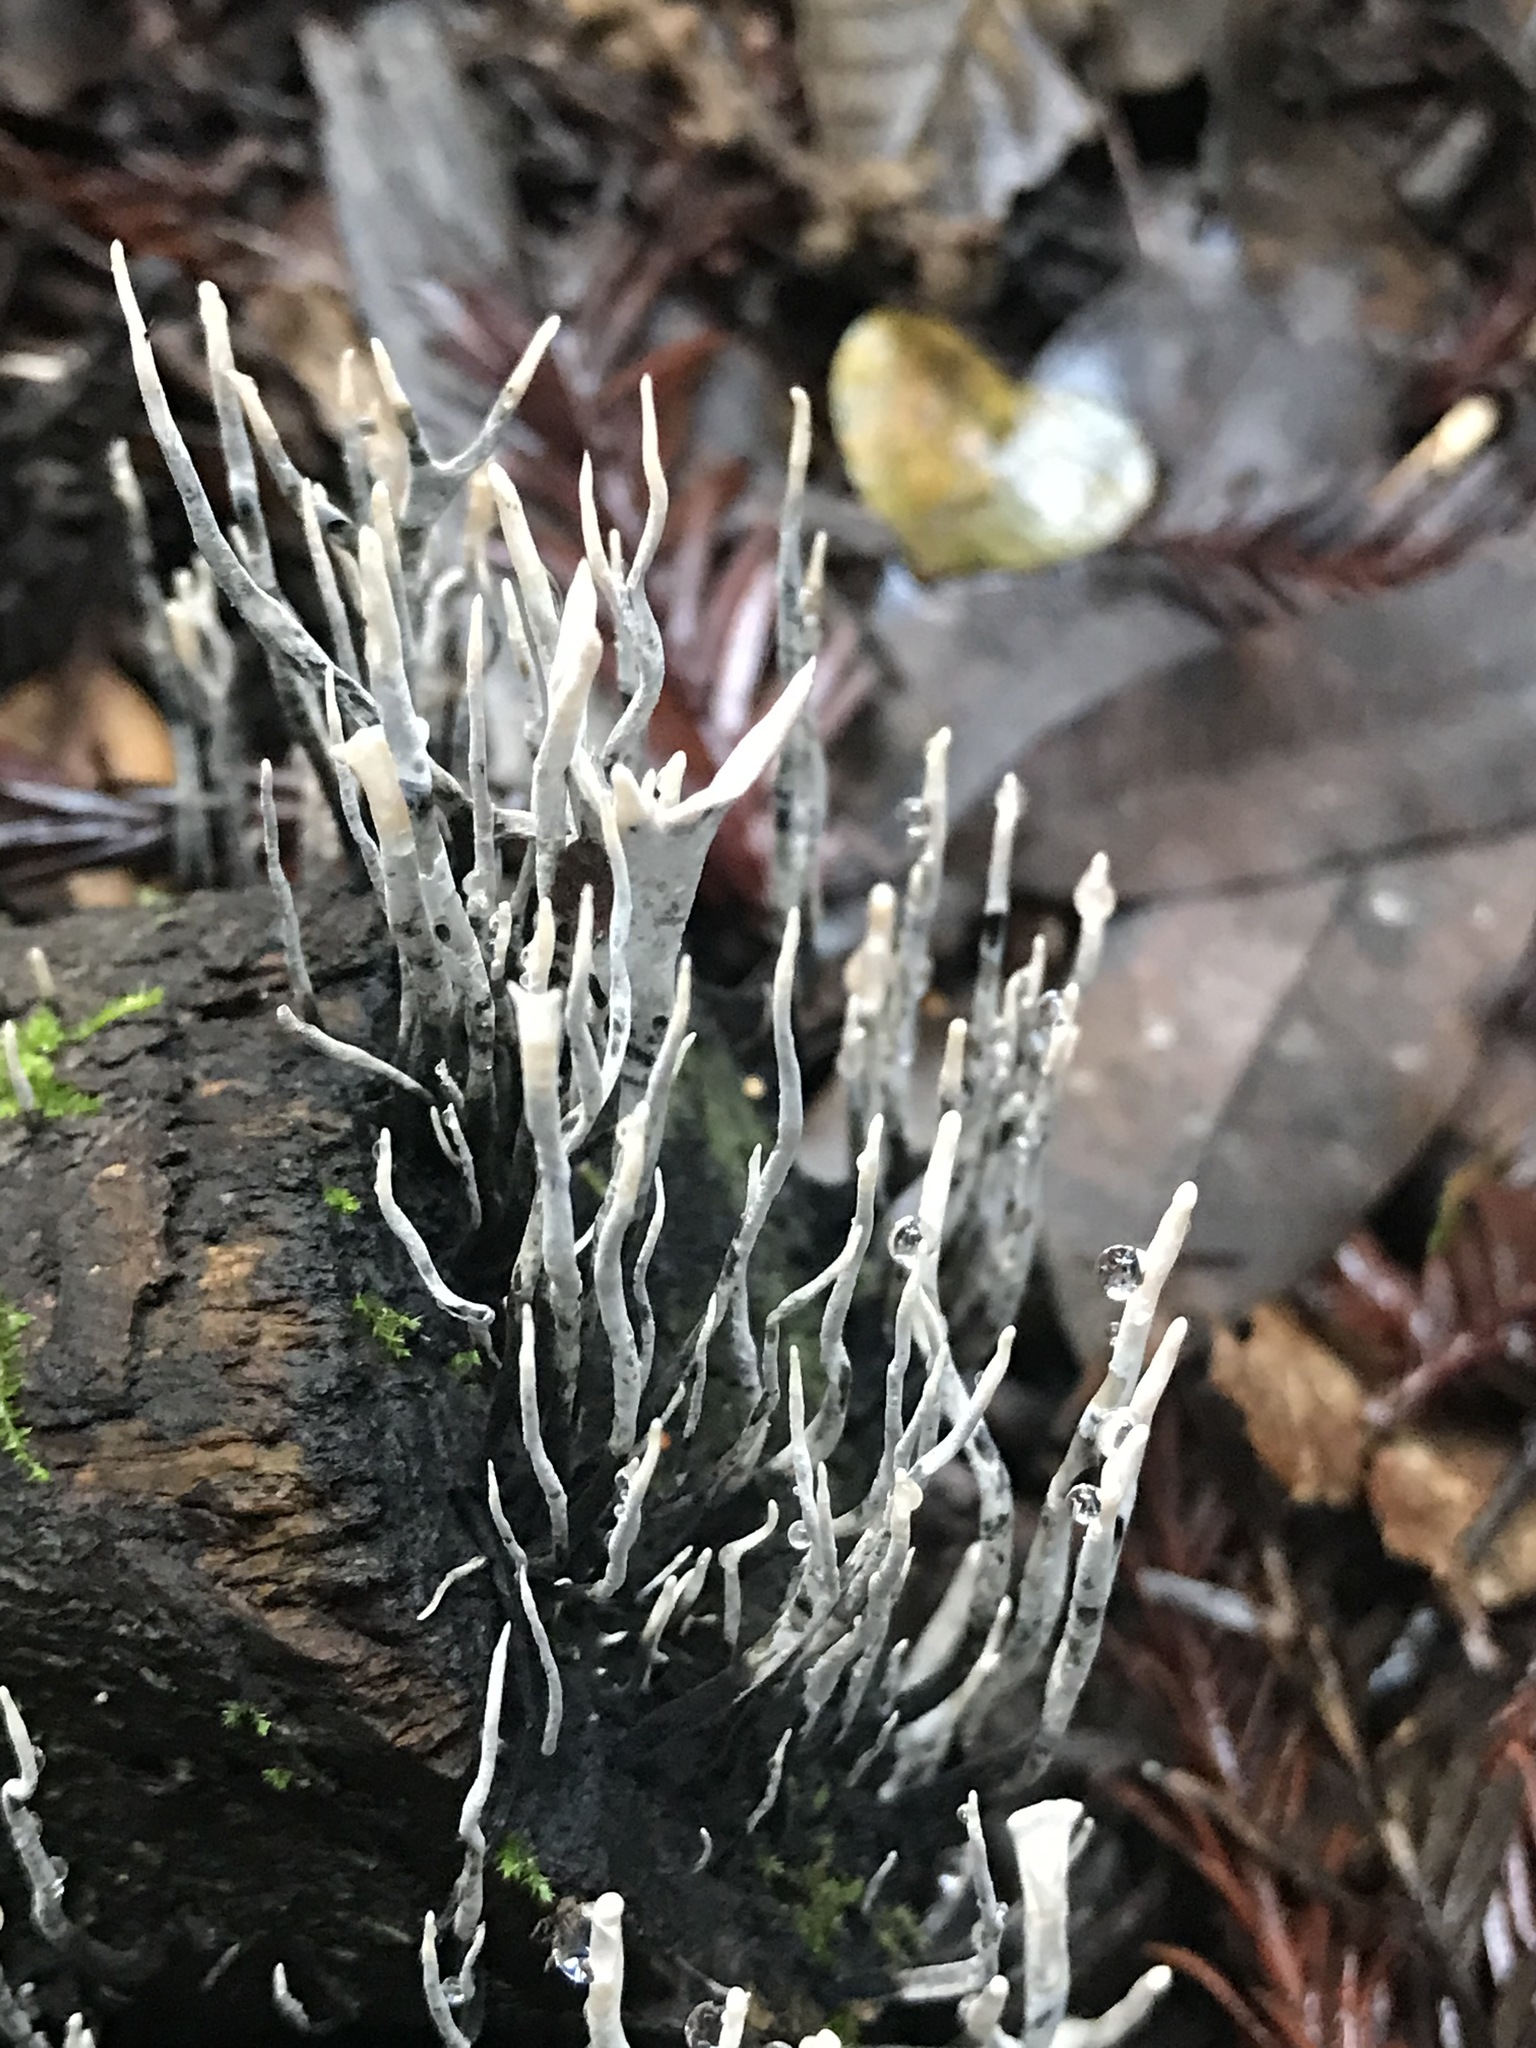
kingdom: Fungi
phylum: Ascomycota
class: Sordariomycetes
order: Xylariales
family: Xylariaceae
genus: Xylaria
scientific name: Xylaria hypoxylon
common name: Candle-snuff fungus
